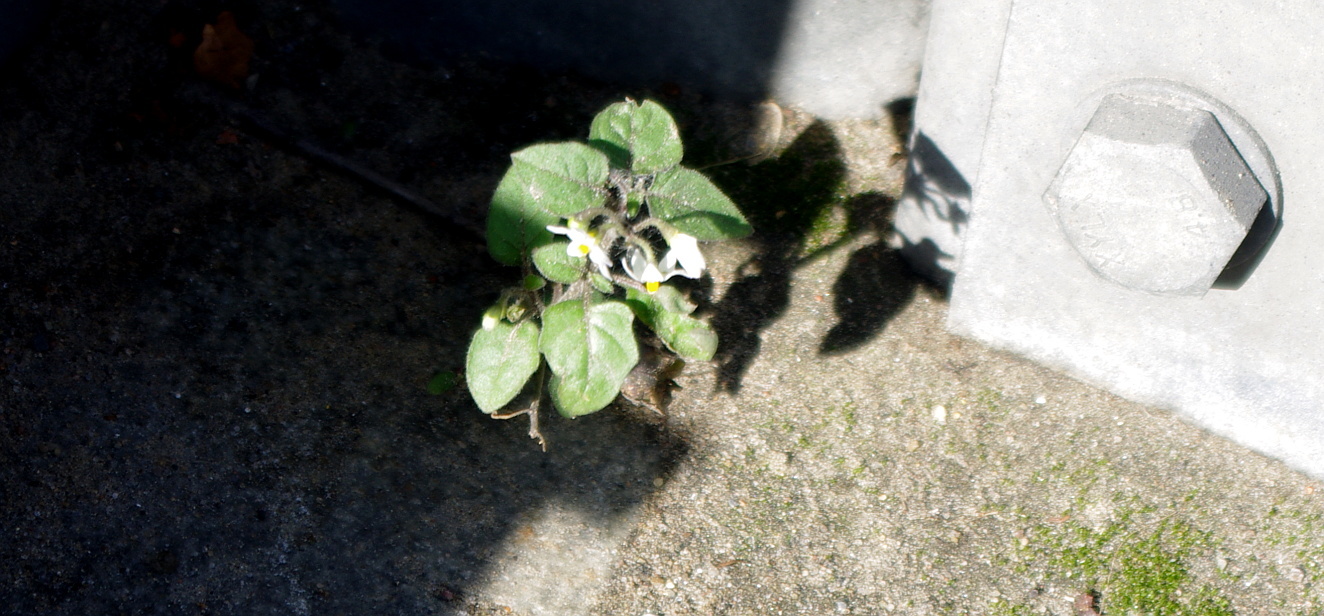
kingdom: Plantae
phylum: Tracheophyta
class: Magnoliopsida
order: Solanales
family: Solanaceae
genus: Solanum
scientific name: Solanum nigrum
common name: Black nightshade
